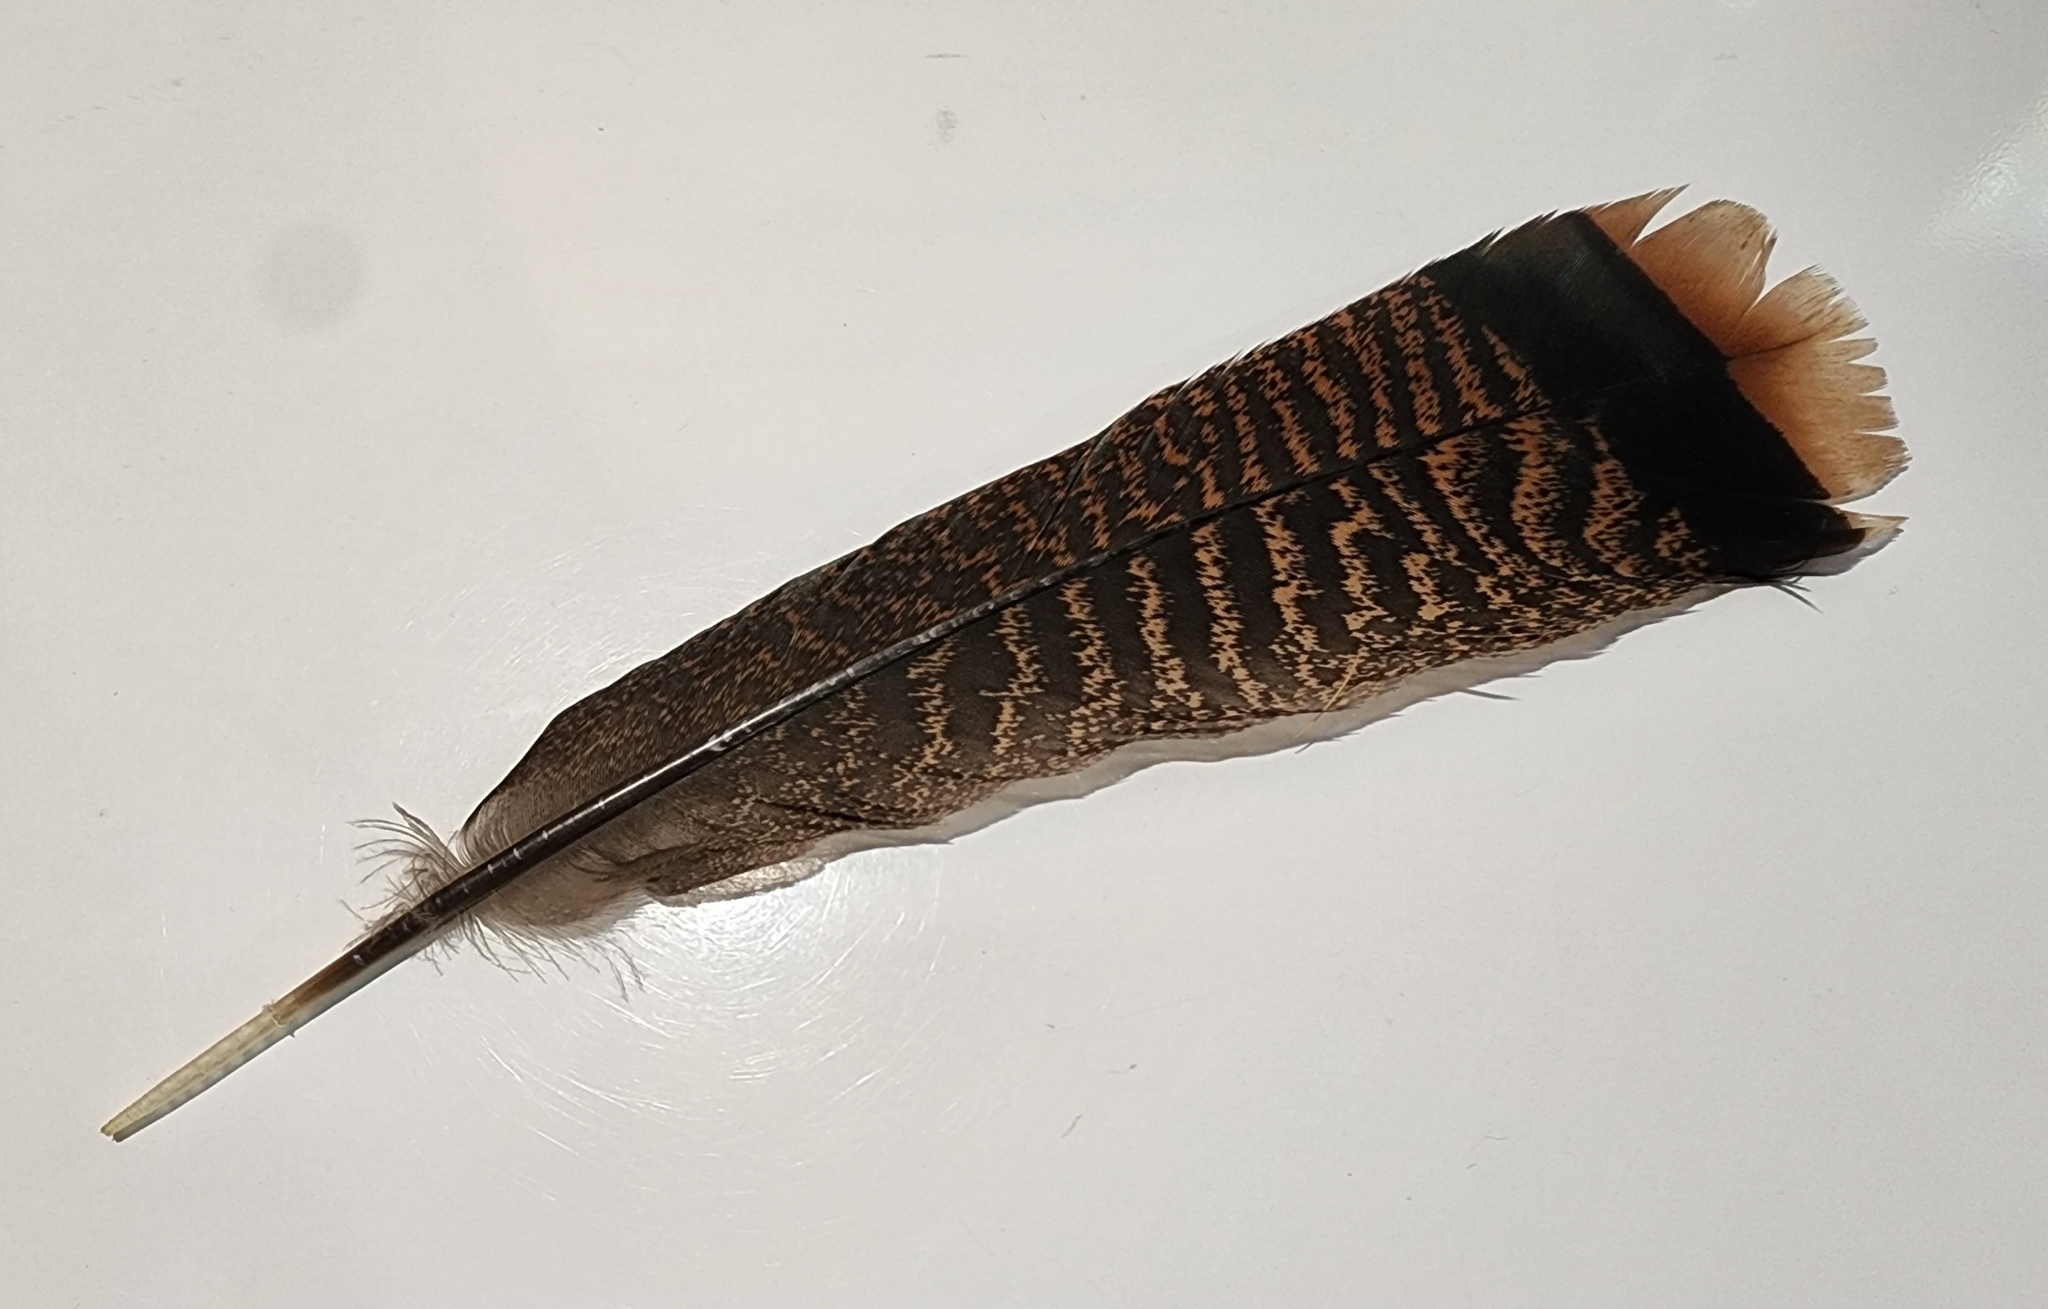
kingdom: Animalia
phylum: Chordata
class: Aves
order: Galliformes
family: Phasianidae
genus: Meleagris
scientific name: Meleagris gallopavo
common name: Wild turkey
